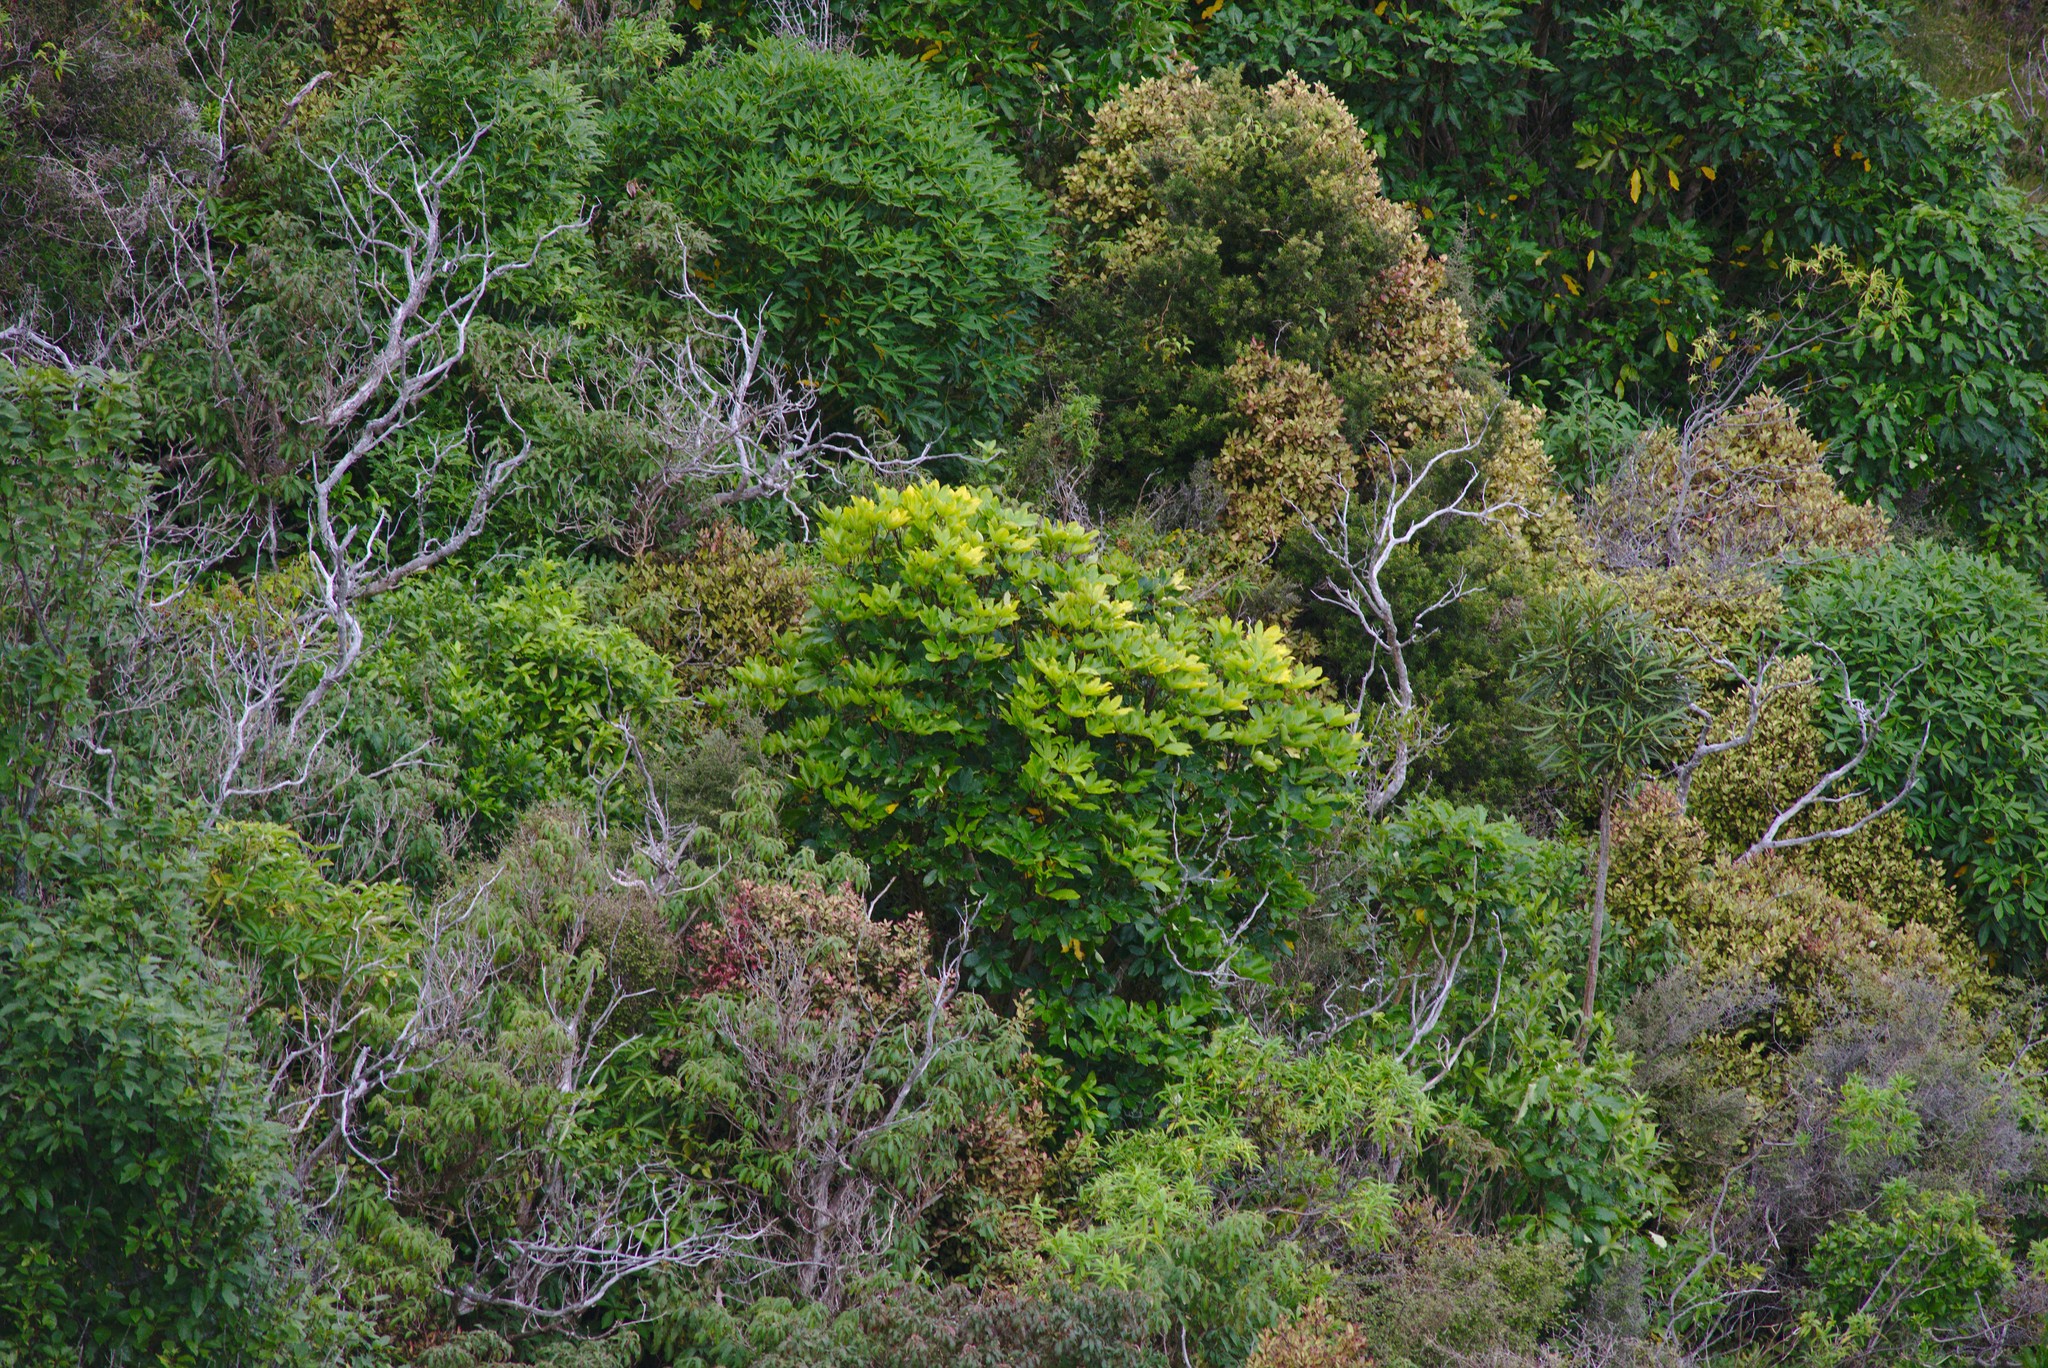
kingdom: Plantae
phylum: Tracheophyta
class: Magnoliopsida
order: Apiales
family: Araliaceae
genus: Pseudopanax
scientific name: Pseudopanax crassifolius
